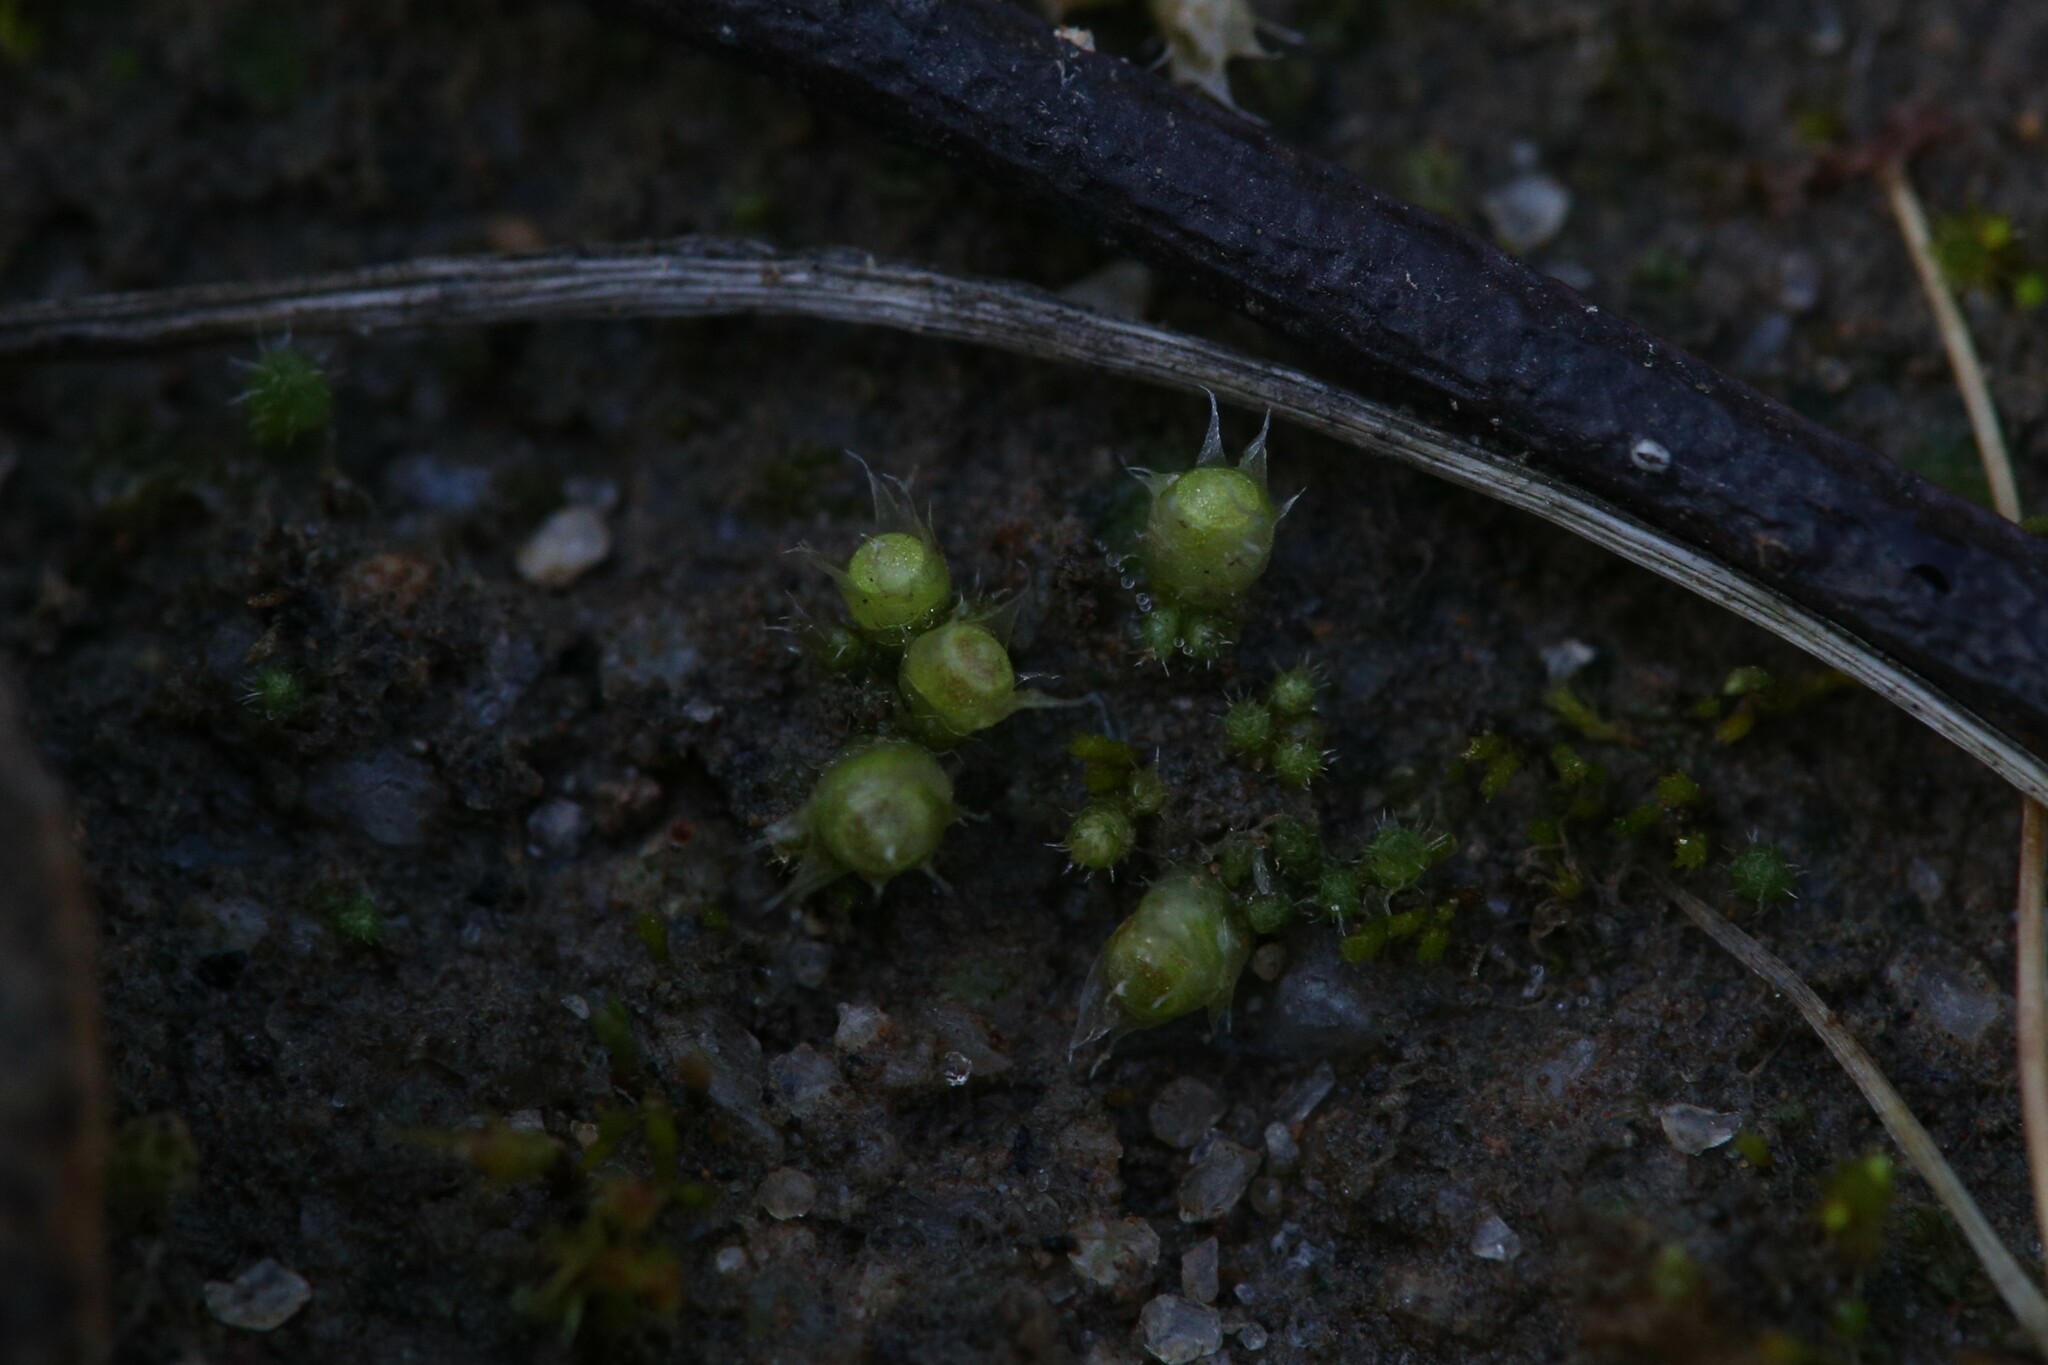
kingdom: Plantae
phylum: Bryophyta
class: Bryopsida
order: Gigaspermales
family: Gigaspermaceae
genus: Gigaspermum
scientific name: Gigaspermum repens
